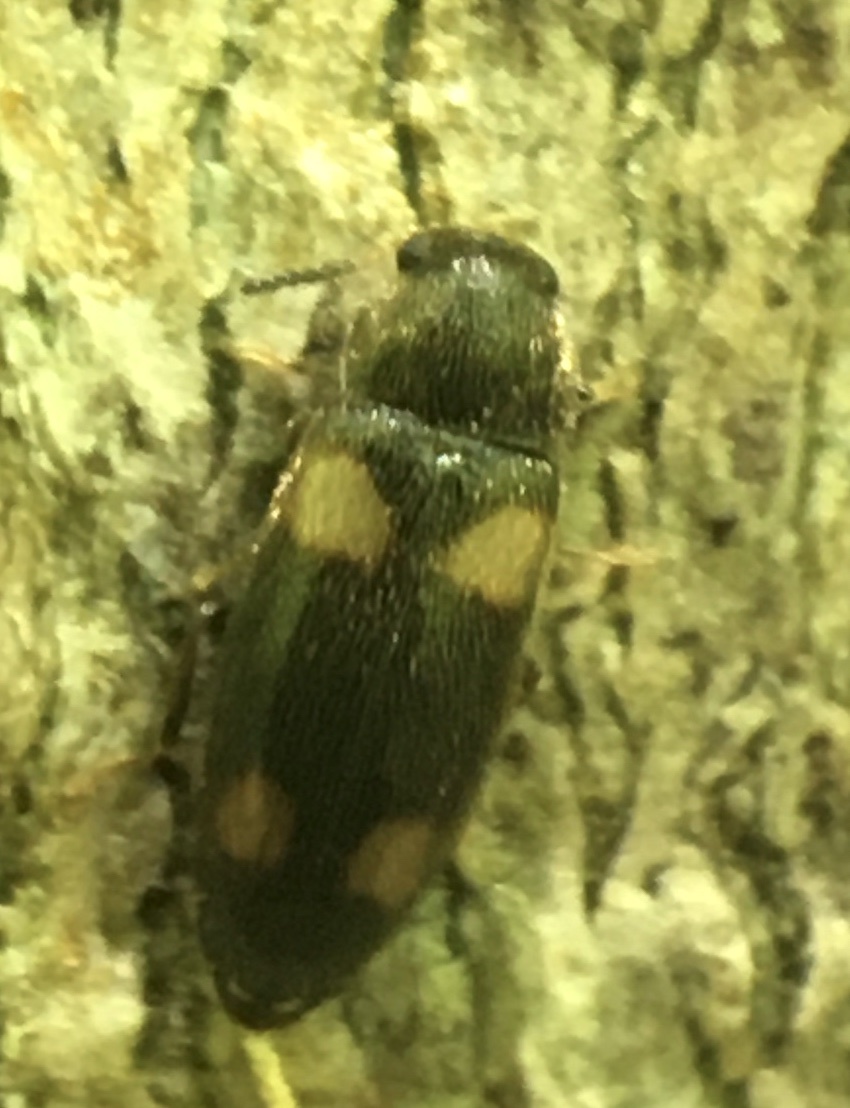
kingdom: Animalia
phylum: Arthropoda
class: Insecta
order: Coleoptera
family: Melandryidae
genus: Spilotus
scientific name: Spilotus quadripustulatus
